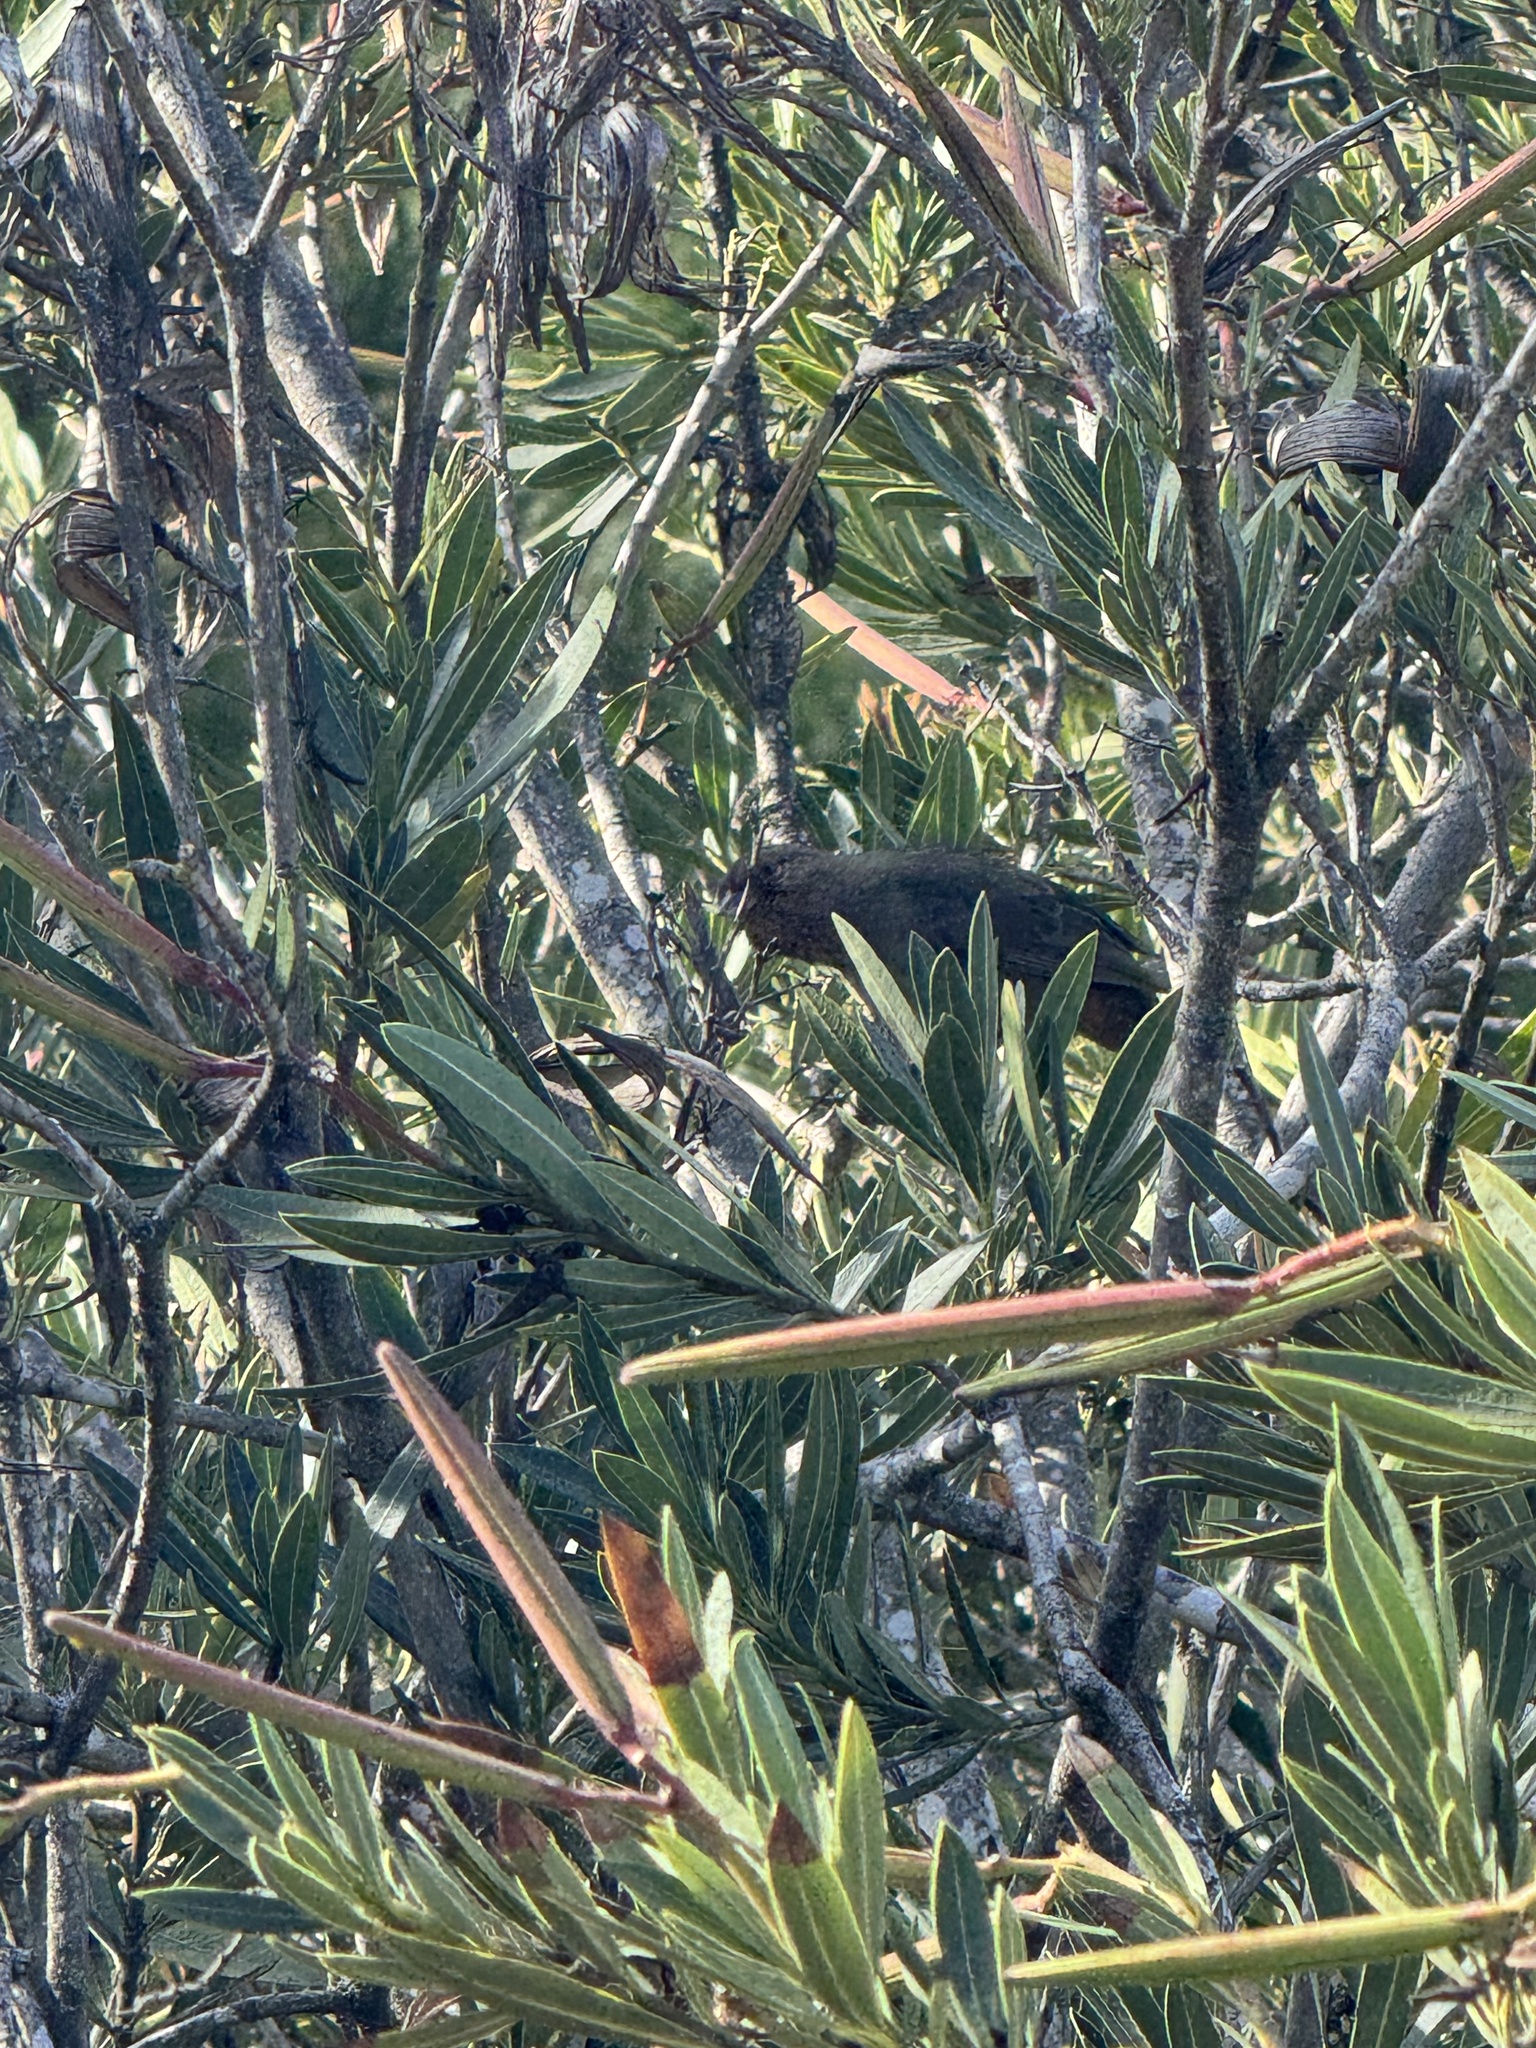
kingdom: Animalia
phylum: Chordata
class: Aves
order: Passeriformes
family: Passerellidae
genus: Melozone
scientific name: Melozone crissalis
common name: California towhee
